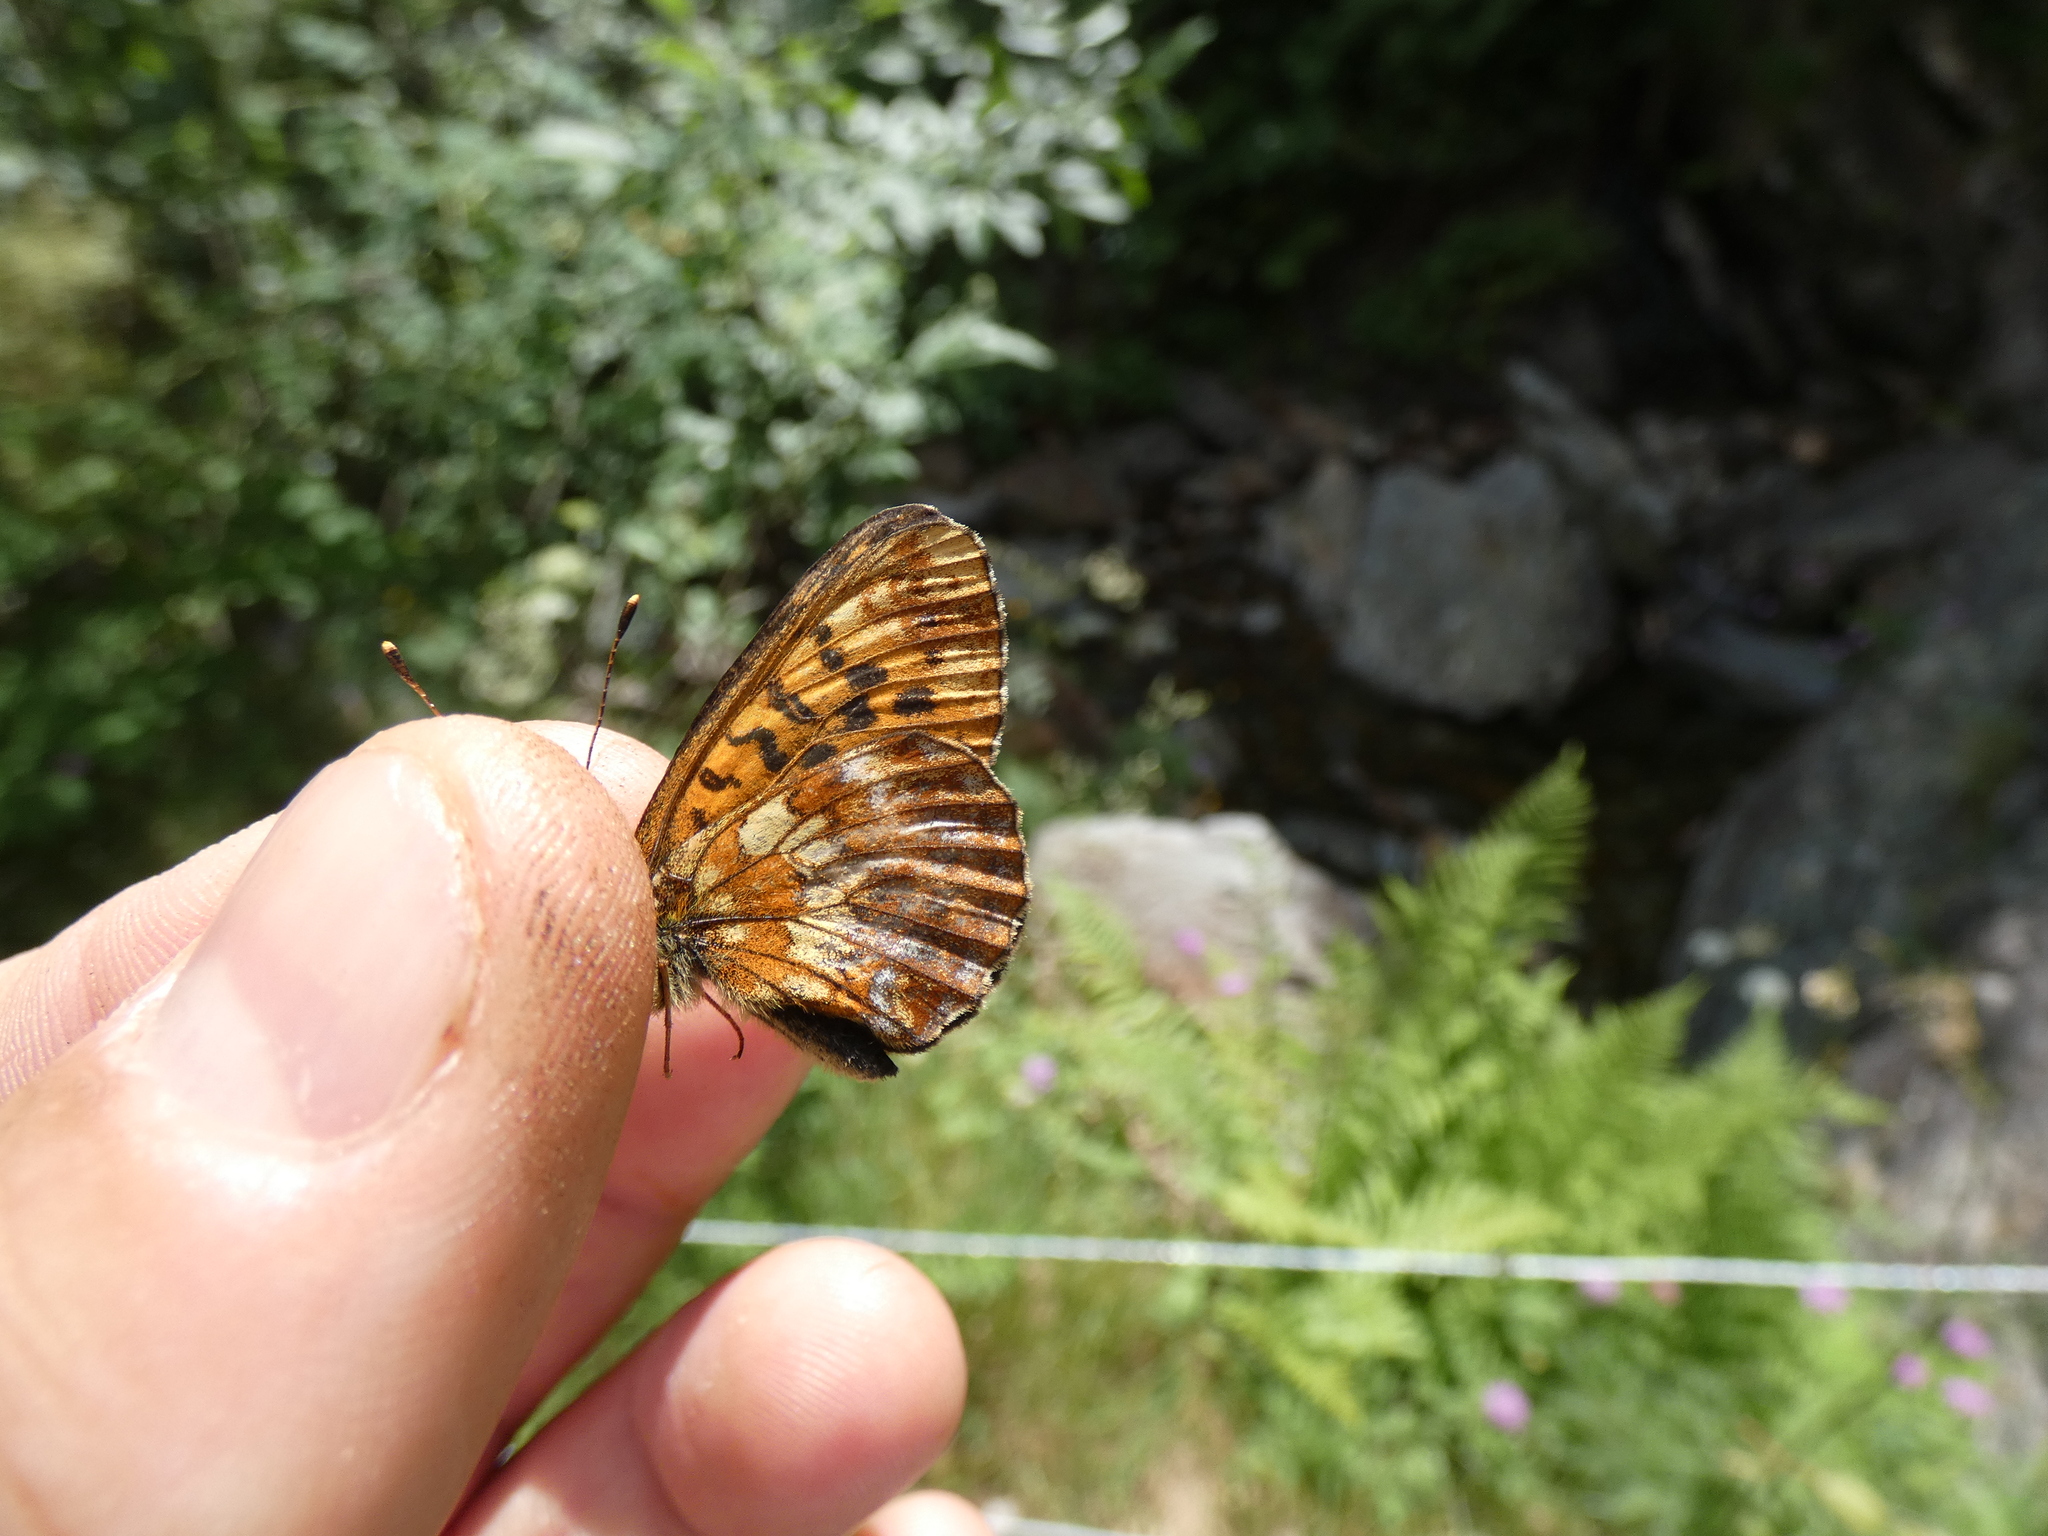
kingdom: Animalia
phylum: Arthropoda
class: Insecta
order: Lepidoptera
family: Nymphalidae
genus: Boloria
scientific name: Boloria thore
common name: Thor's fritillary
